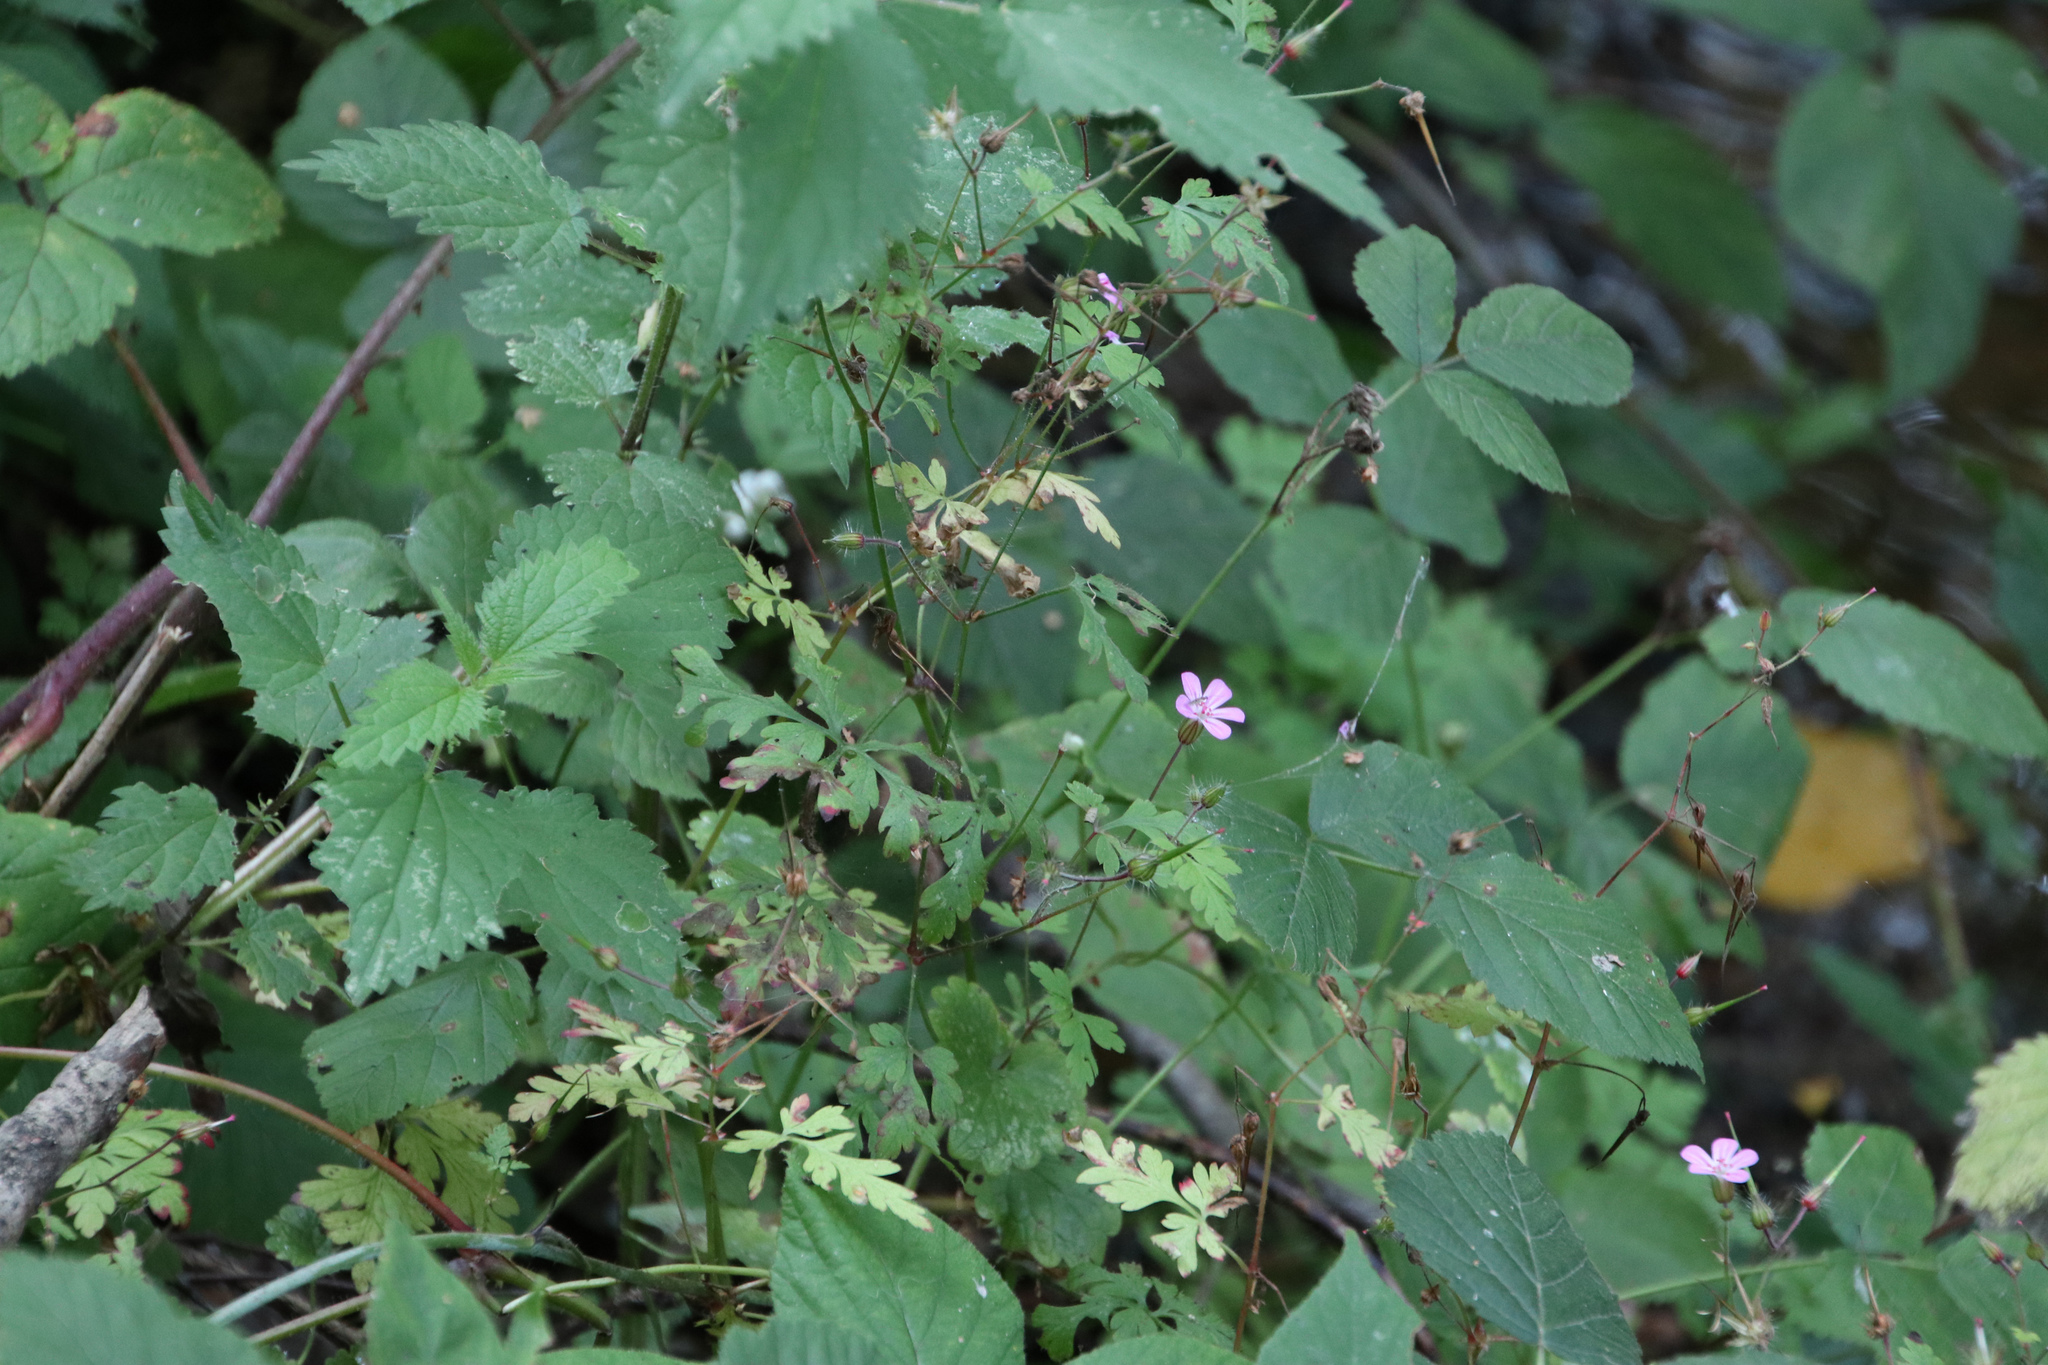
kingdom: Plantae
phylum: Tracheophyta
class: Magnoliopsida
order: Geraniales
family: Geraniaceae
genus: Geranium
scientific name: Geranium robertianum
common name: Herb-robert
